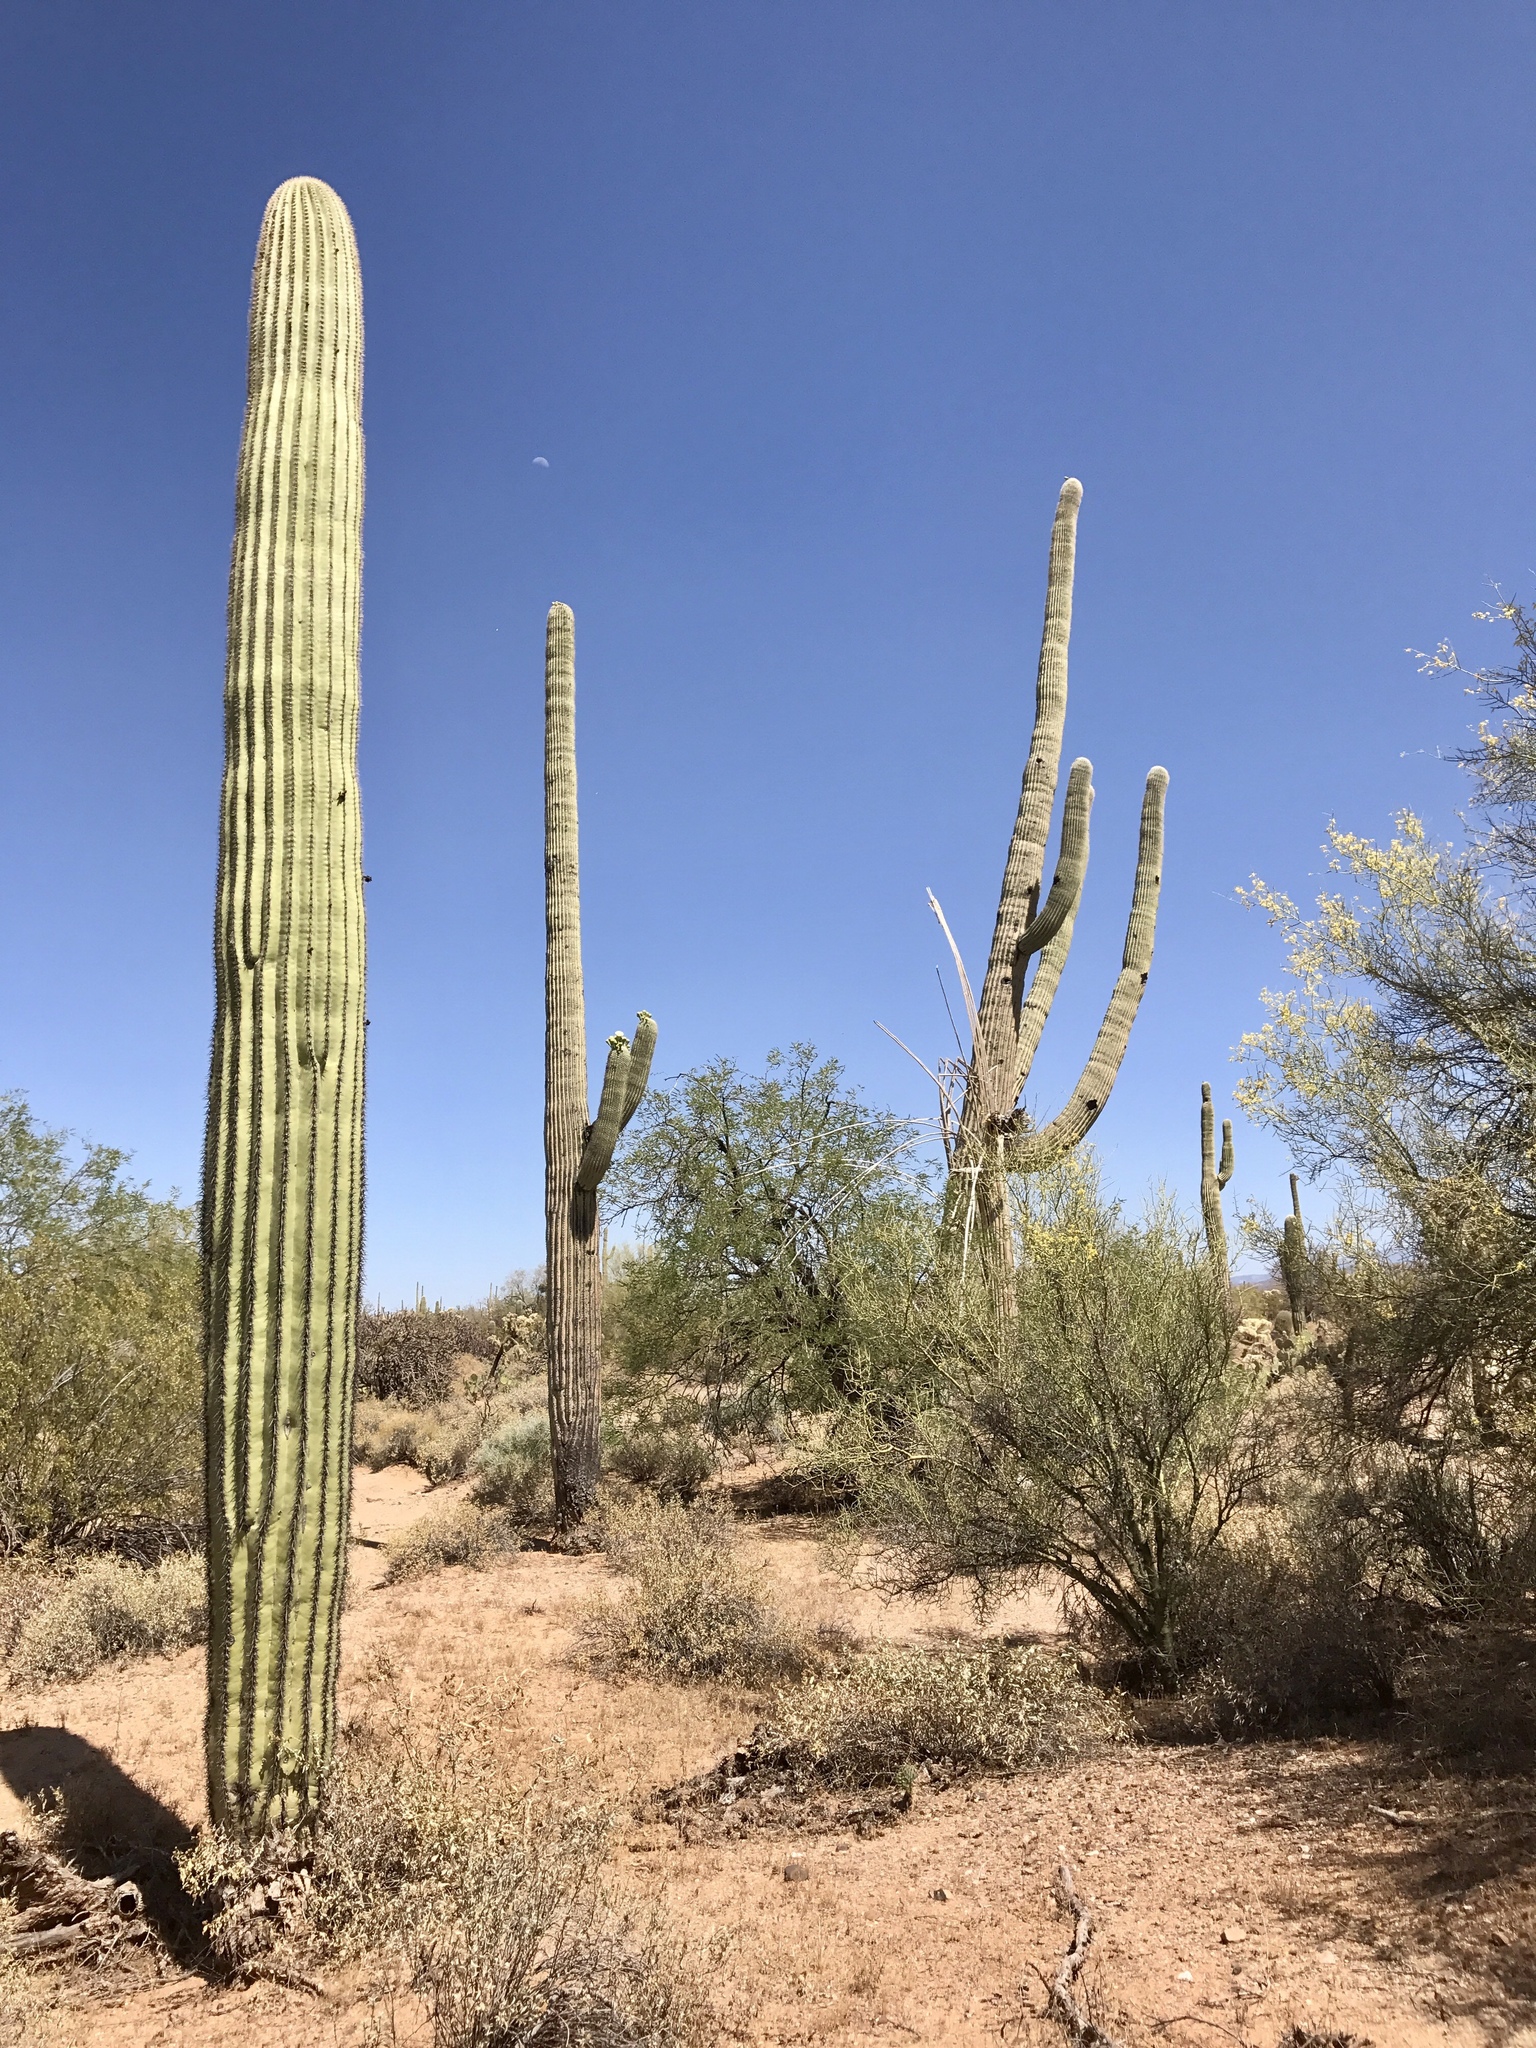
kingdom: Plantae
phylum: Tracheophyta
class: Magnoliopsida
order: Caryophyllales
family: Cactaceae
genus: Carnegiea
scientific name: Carnegiea gigantea
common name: Saguaro
